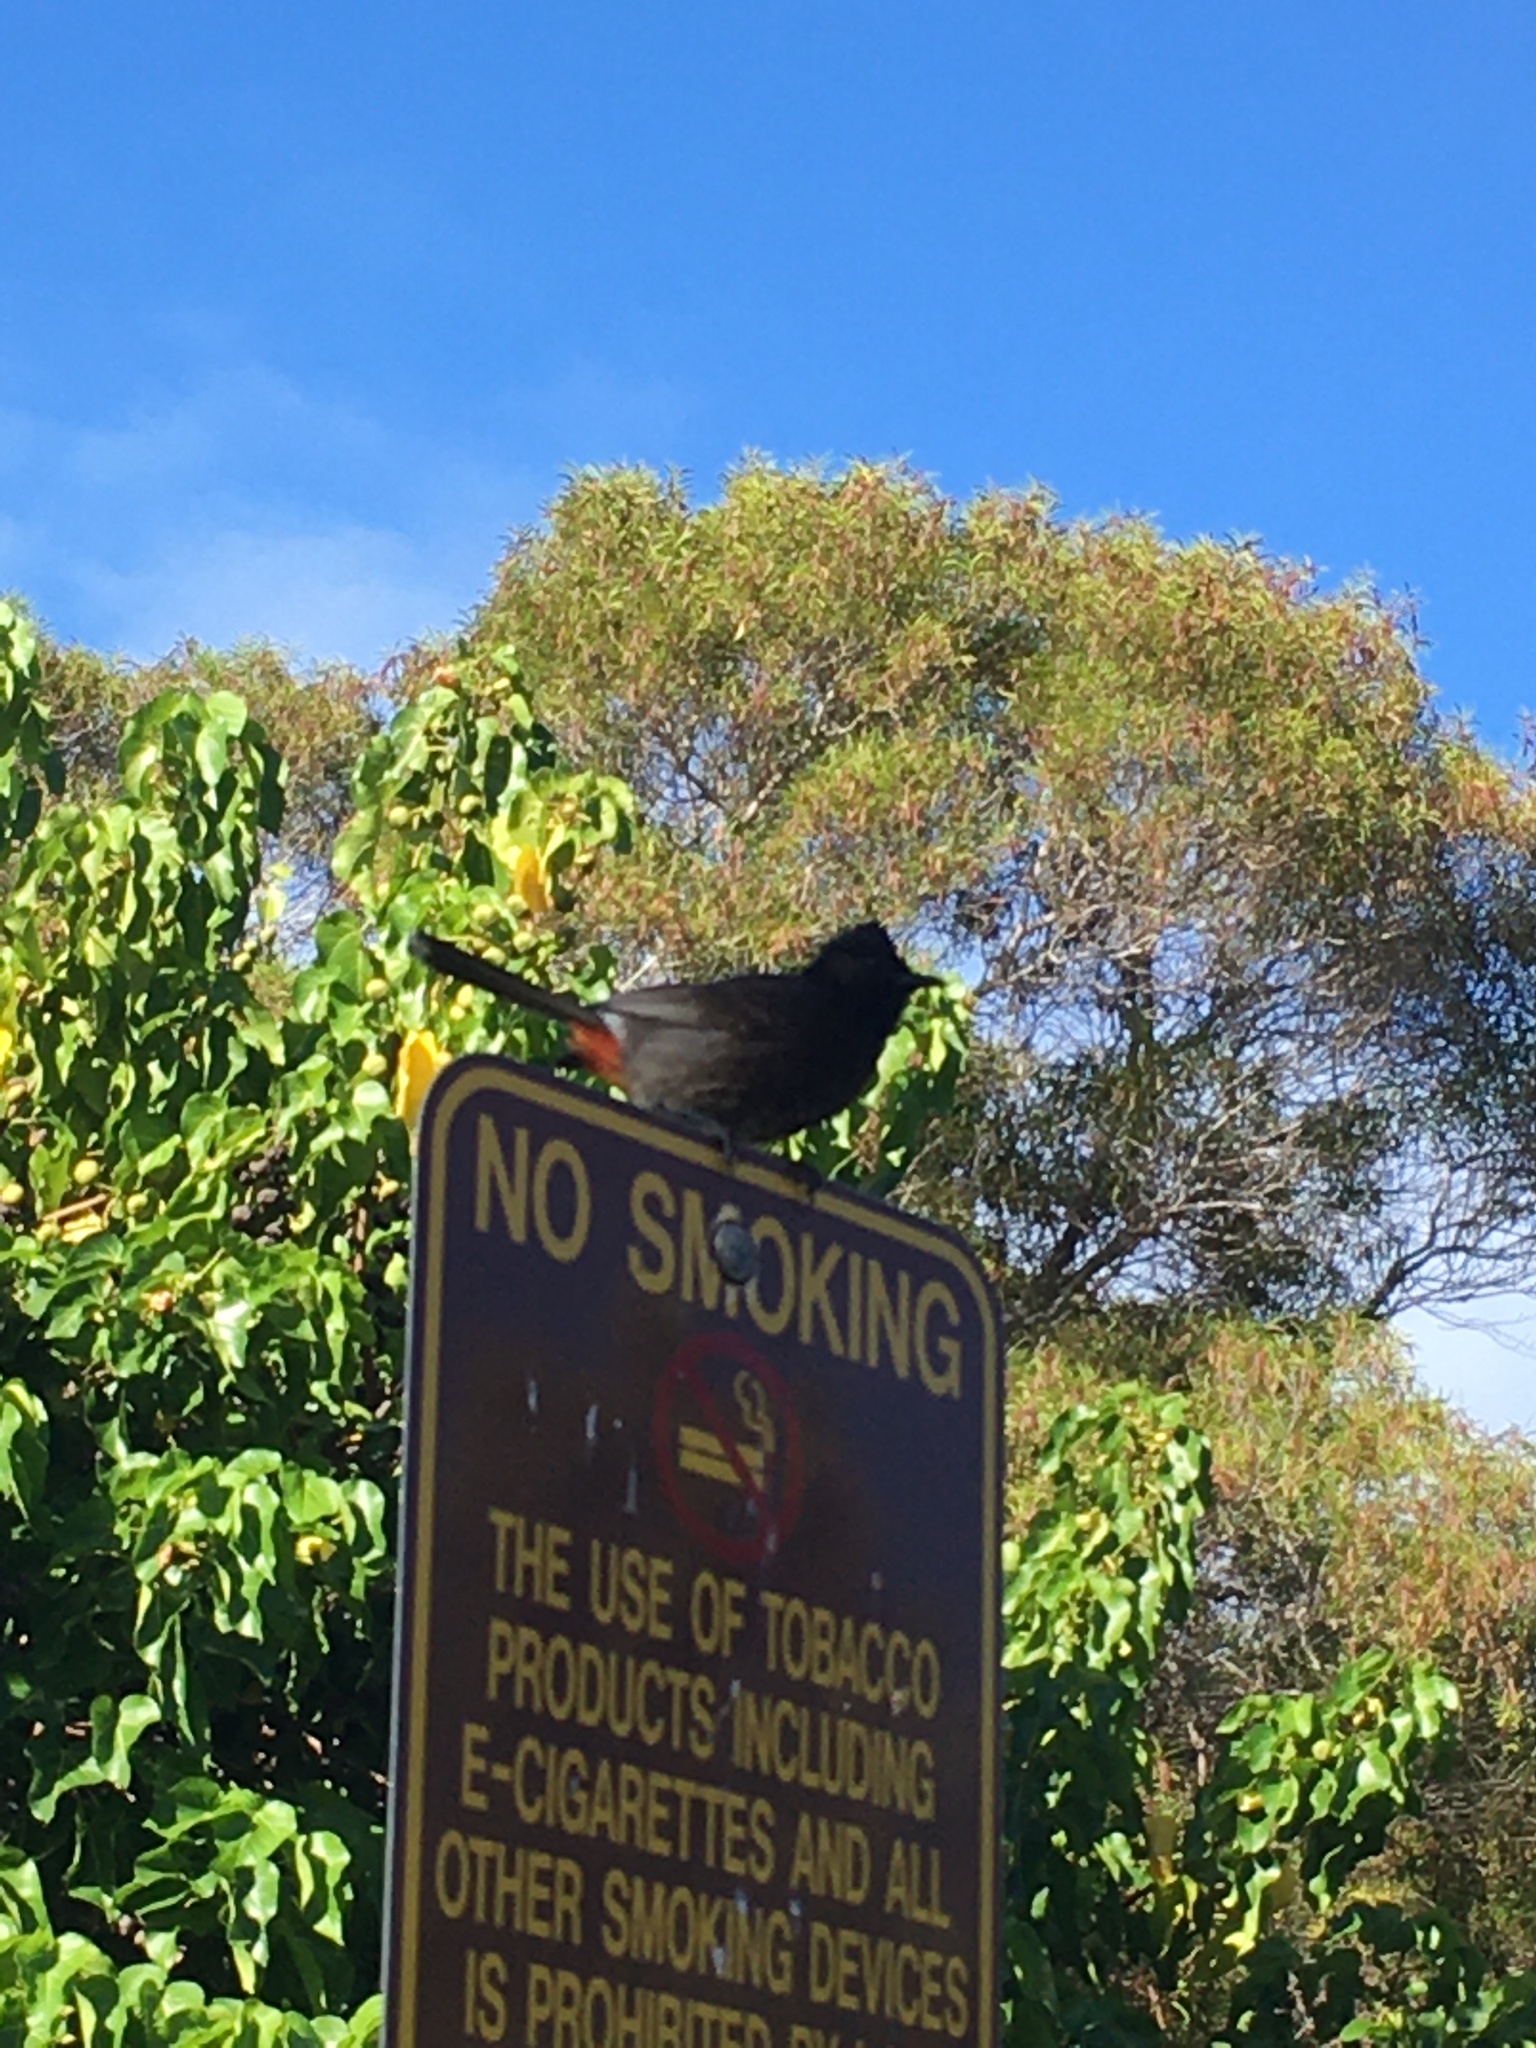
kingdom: Animalia
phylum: Chordata
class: Aves
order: Passeriformes
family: Pycnonotidae
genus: Pycnonotus
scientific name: Pycnonotus cafer
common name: Red-vented bulbul
